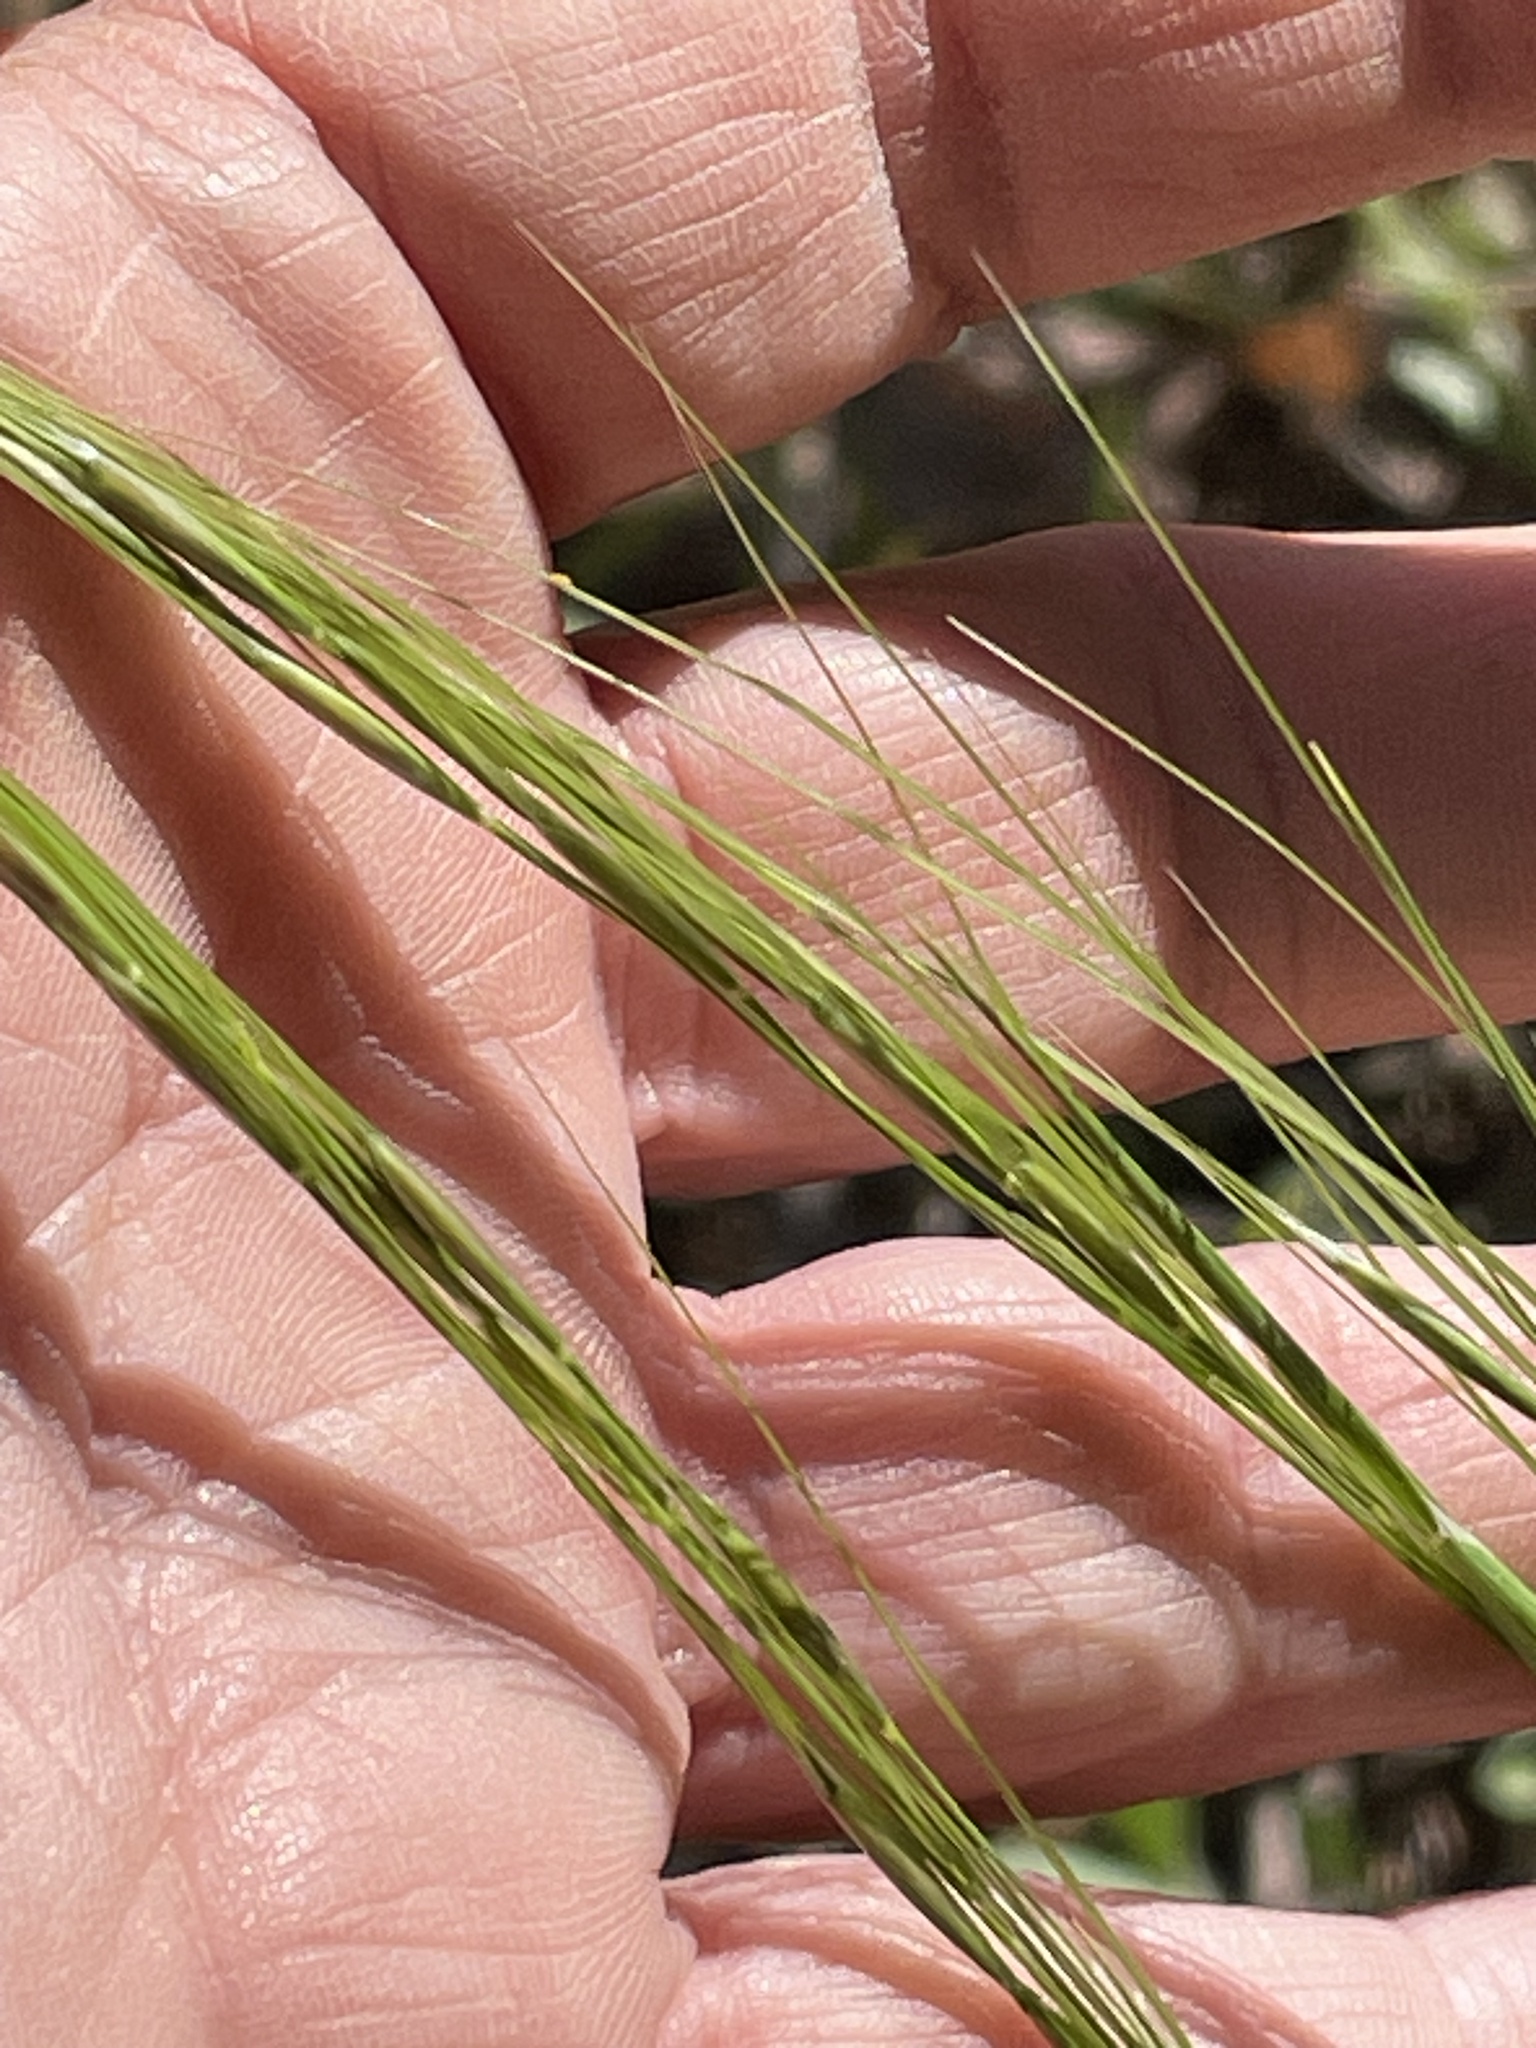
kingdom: Plantae
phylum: Tracheophyta
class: Liliopsida
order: Poales
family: Poaceae
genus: Piptochaetium
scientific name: Piptochaetium avenaceum
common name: Black bunchgrass
